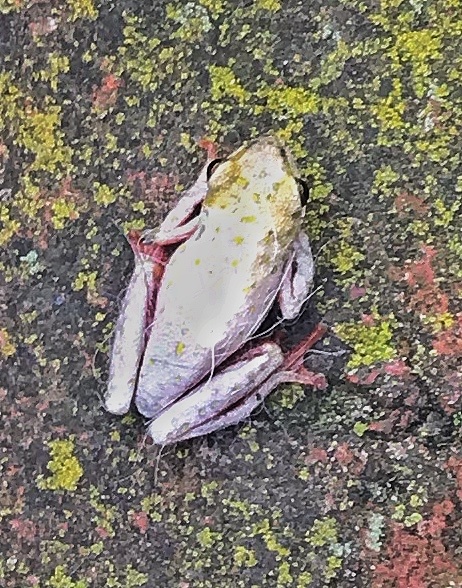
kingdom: Animalia
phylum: Chordata
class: Amphibia
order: Anura
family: Hyperoliidae
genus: Hyperolius
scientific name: Hyperolius marmoratus
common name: Painted reed frog
